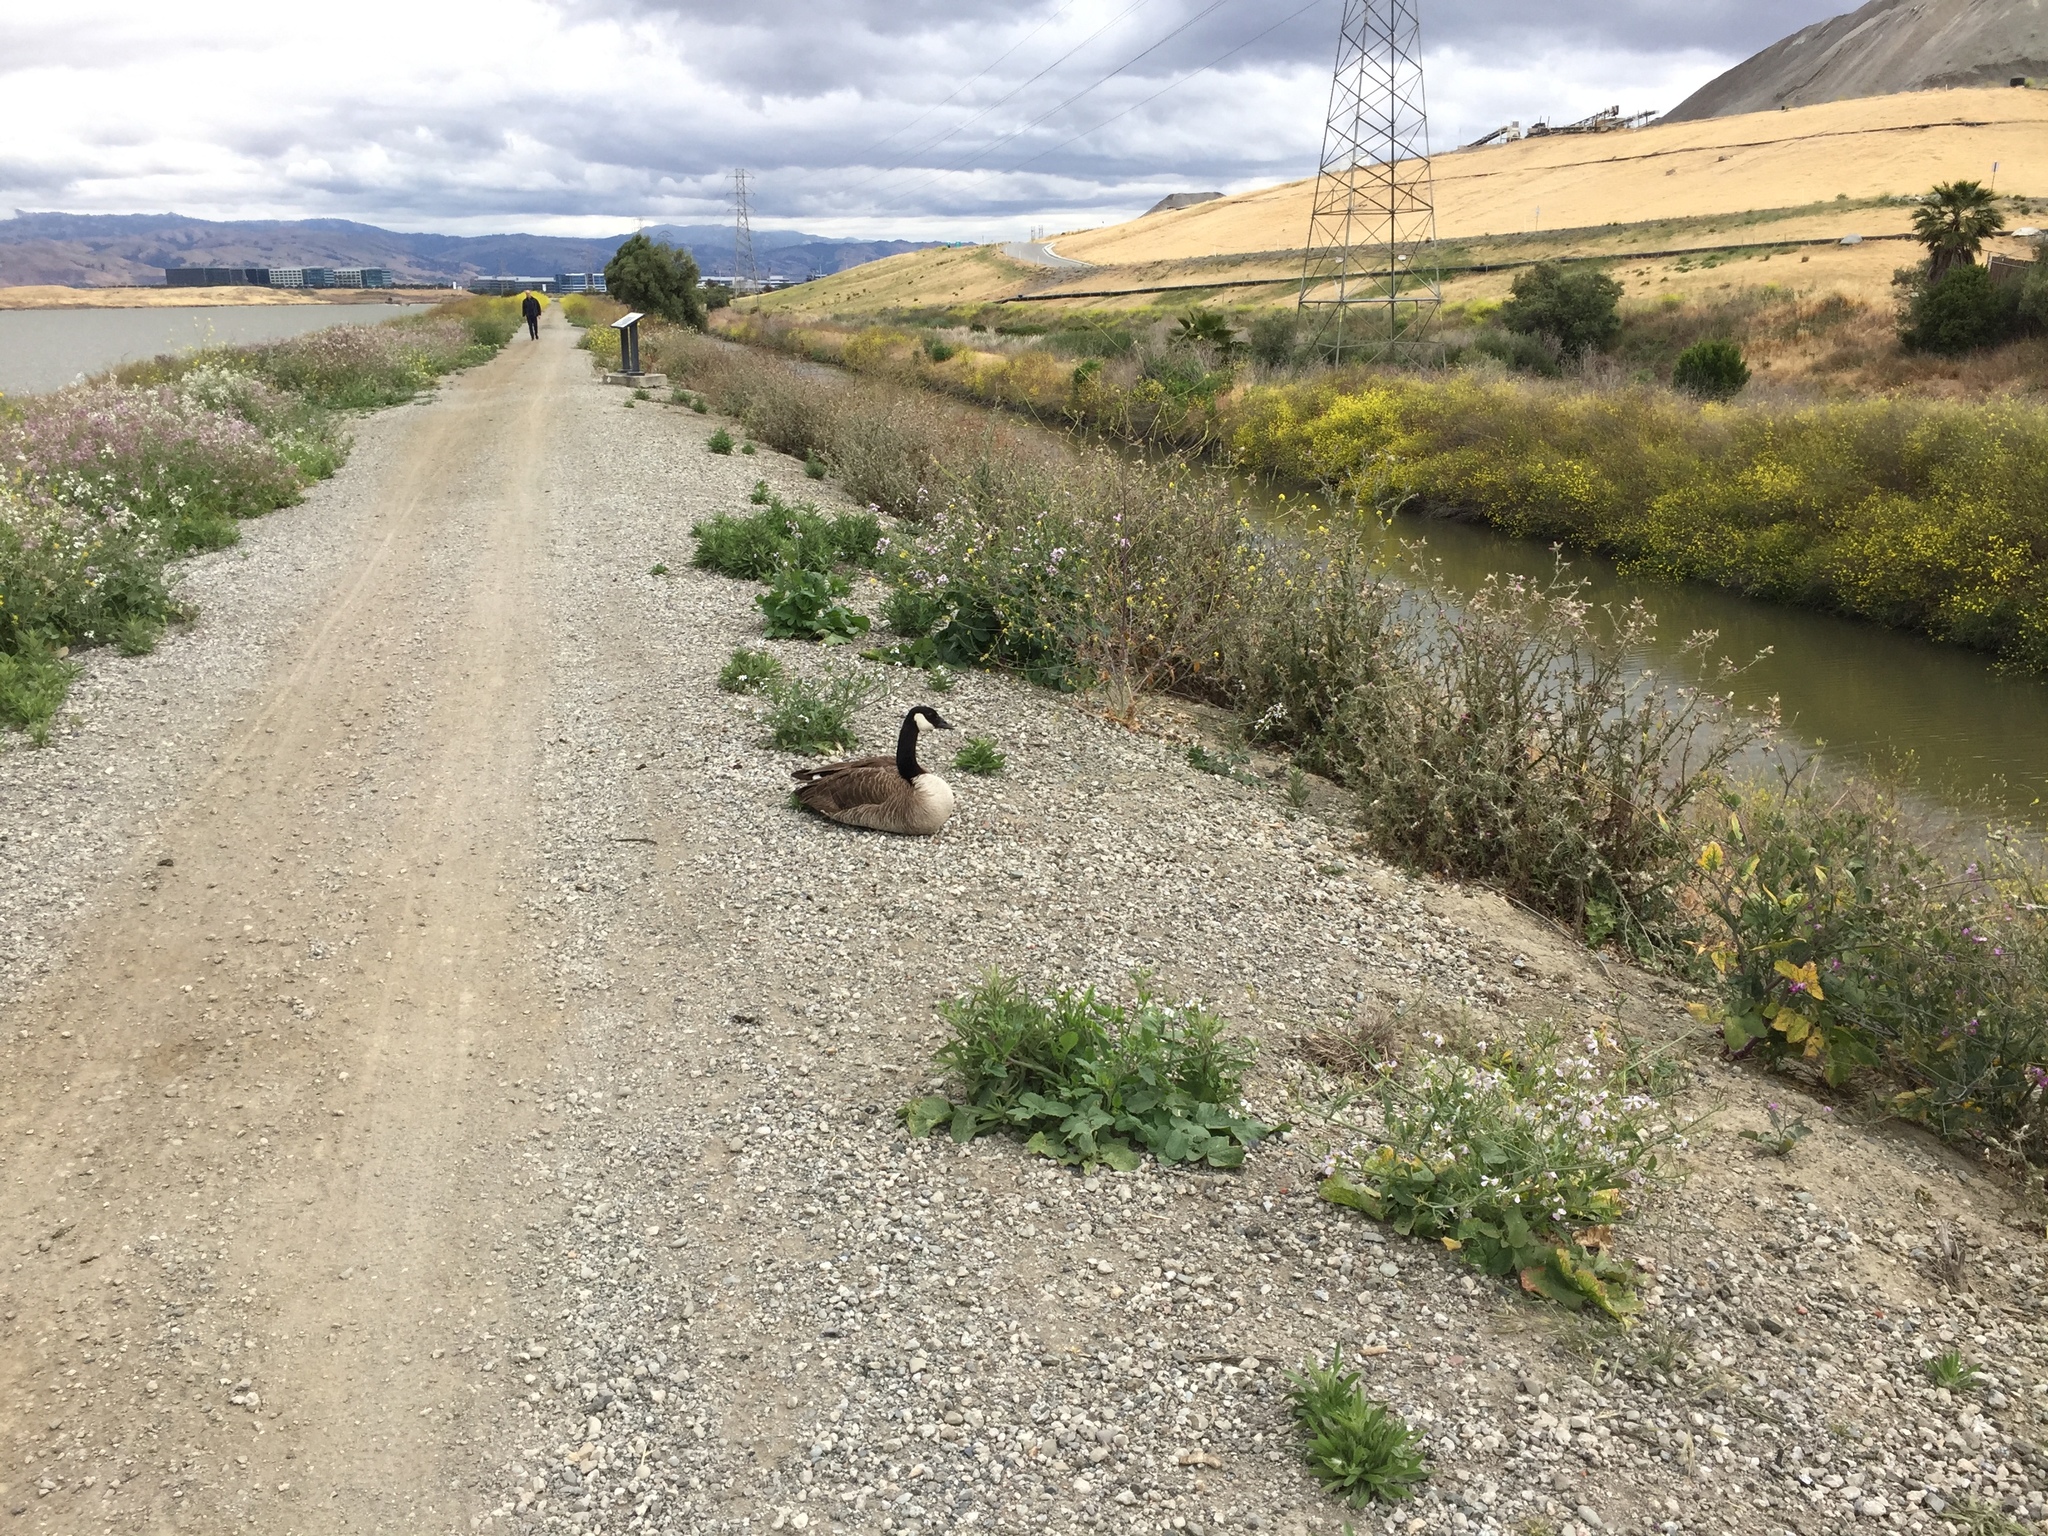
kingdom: Animalia
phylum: Chordata
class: Aves
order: Anseriformes
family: Anatidae
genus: Branta
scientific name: Branta canadensis
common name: Canada goose
